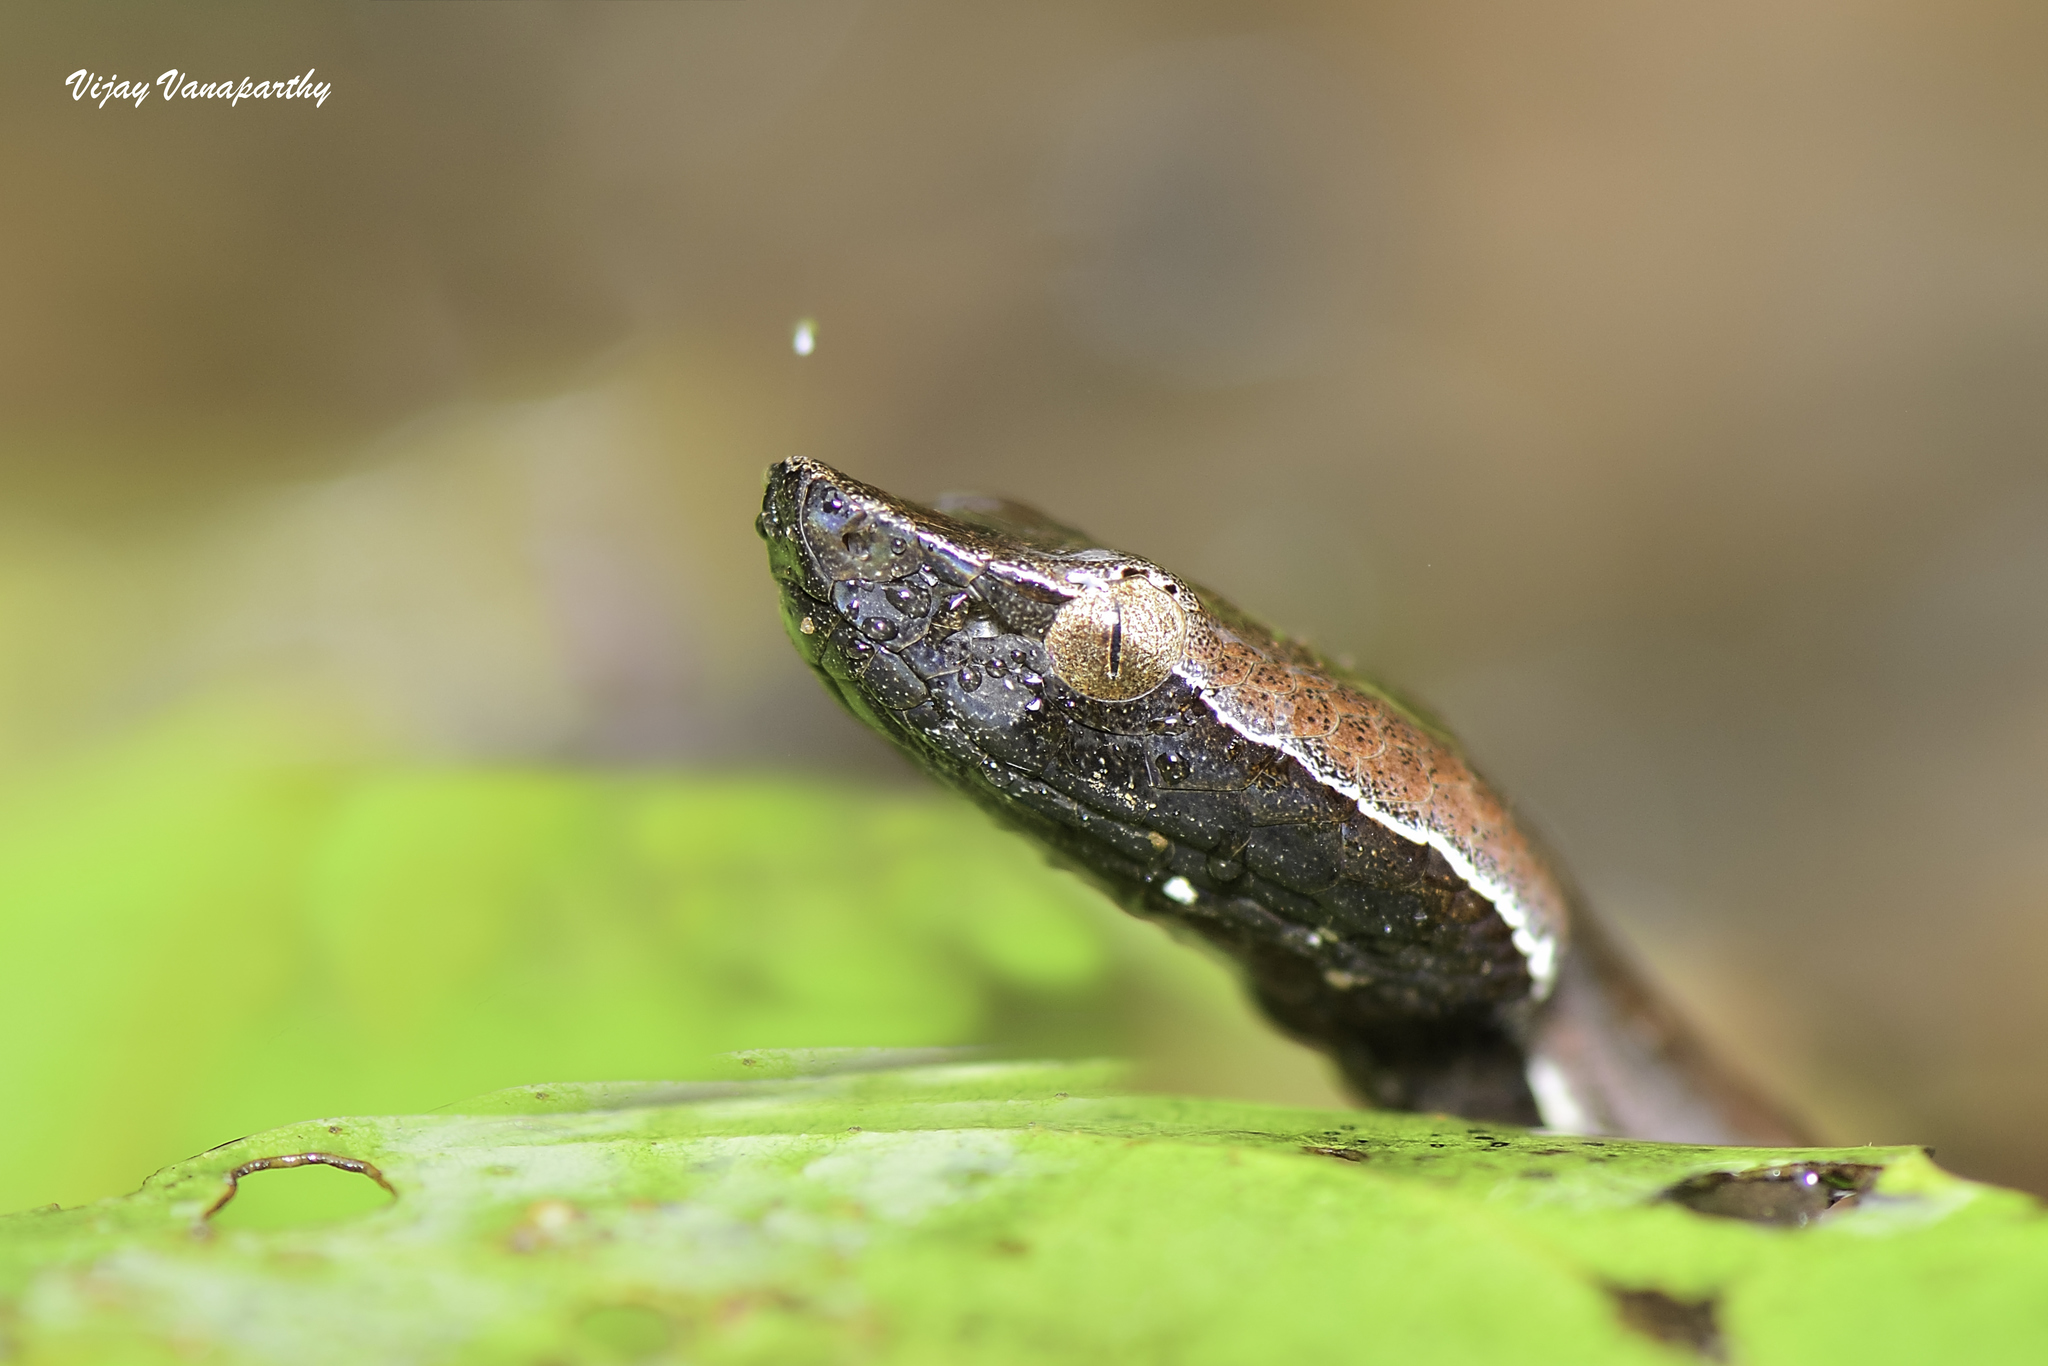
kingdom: Animalia
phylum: Chordata
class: Squamata
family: Viperidae
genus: Hypnale
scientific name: Hypnale hypnale
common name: Hump-nosed moccasin
